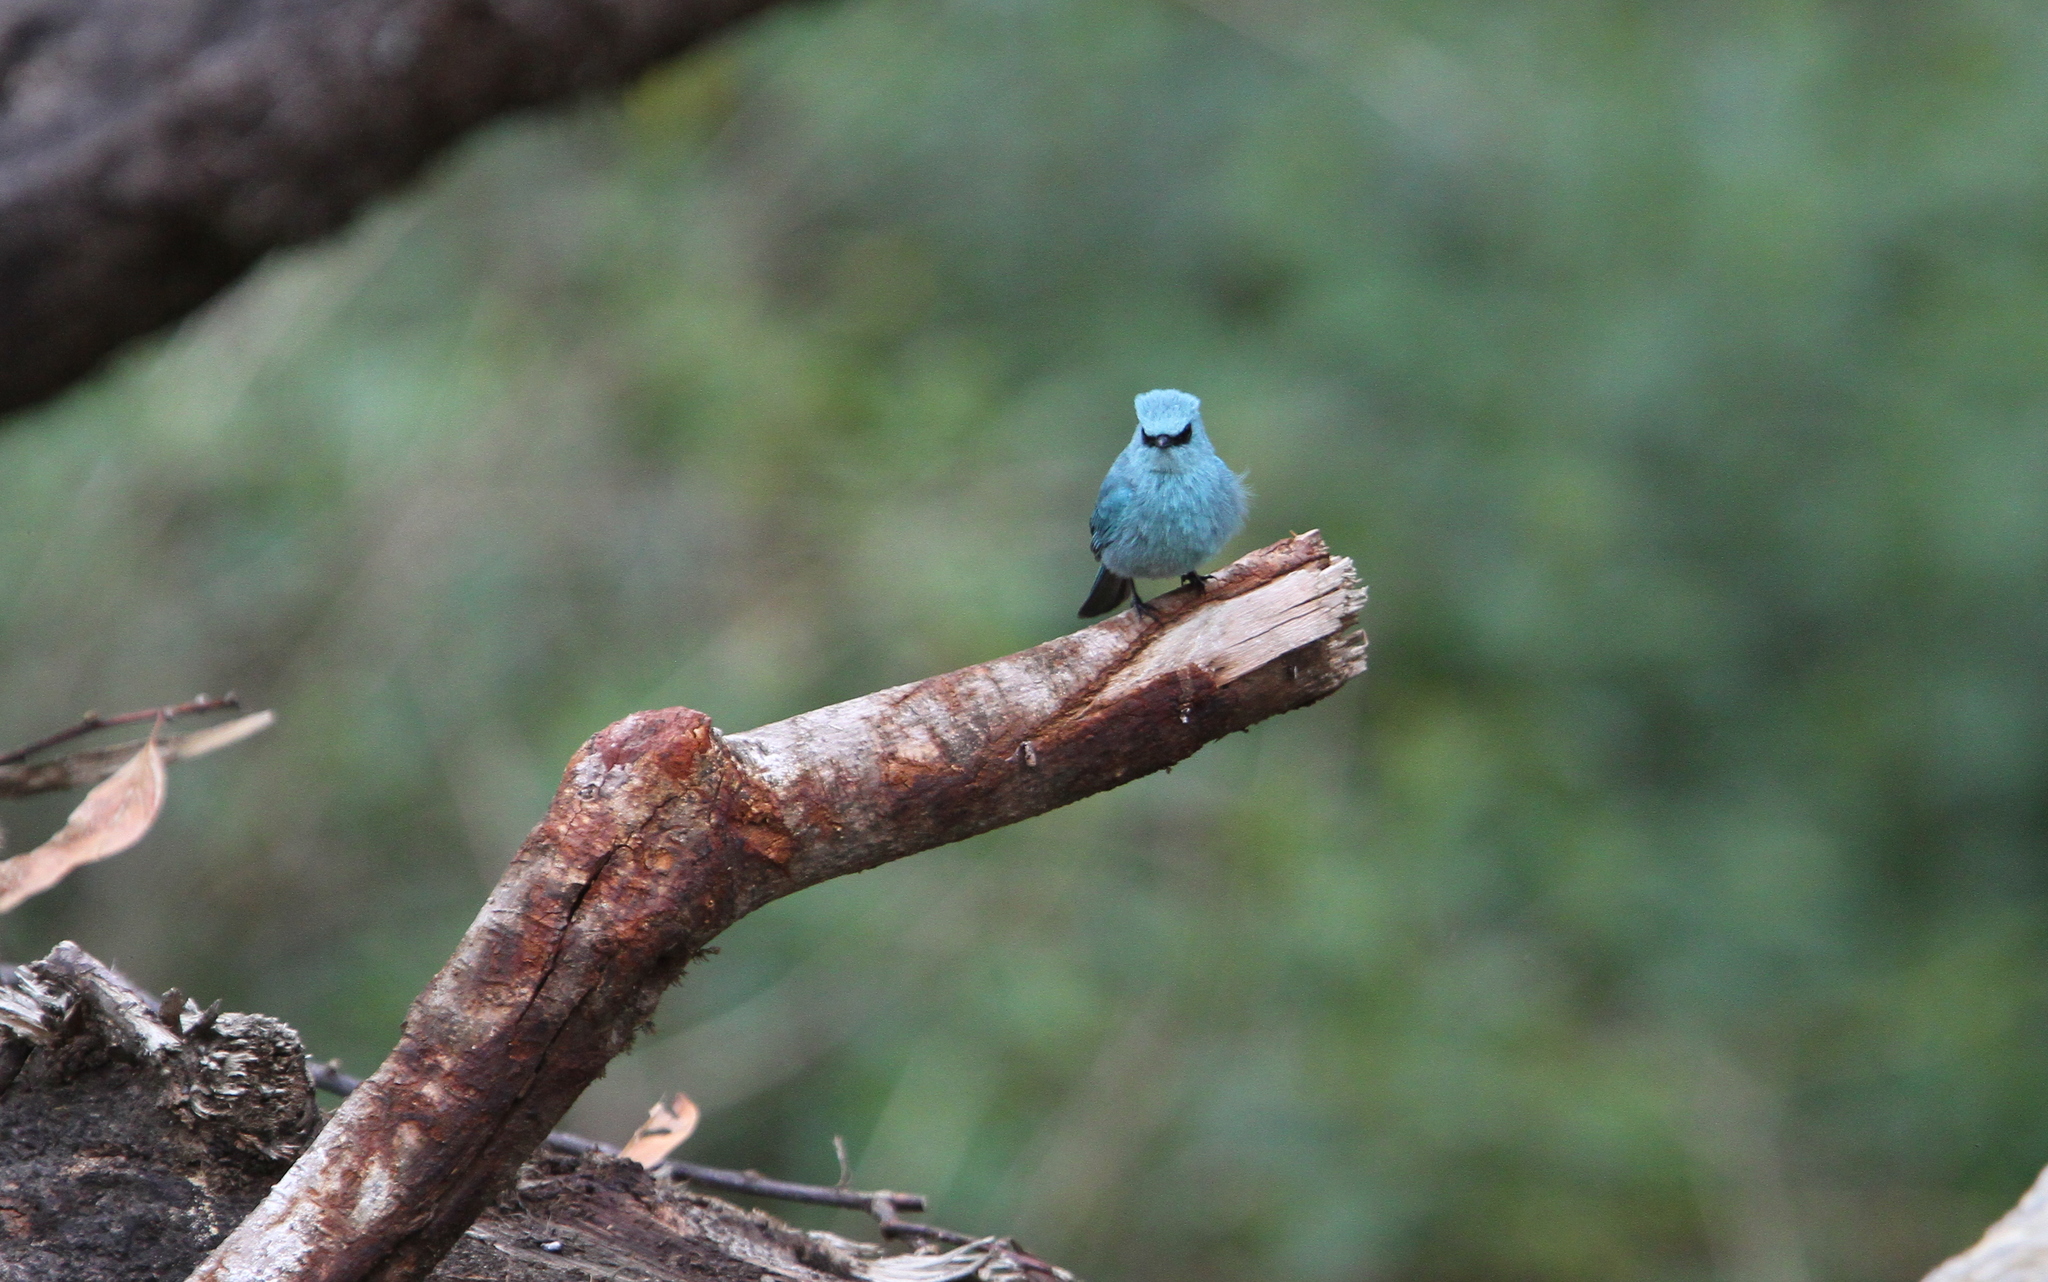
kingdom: Animalia
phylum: Chordata
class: Aves
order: Passeriformes
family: Muscicapidae
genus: Eumyias
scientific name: Eumyias thalassinus
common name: Verditer flycatcher
